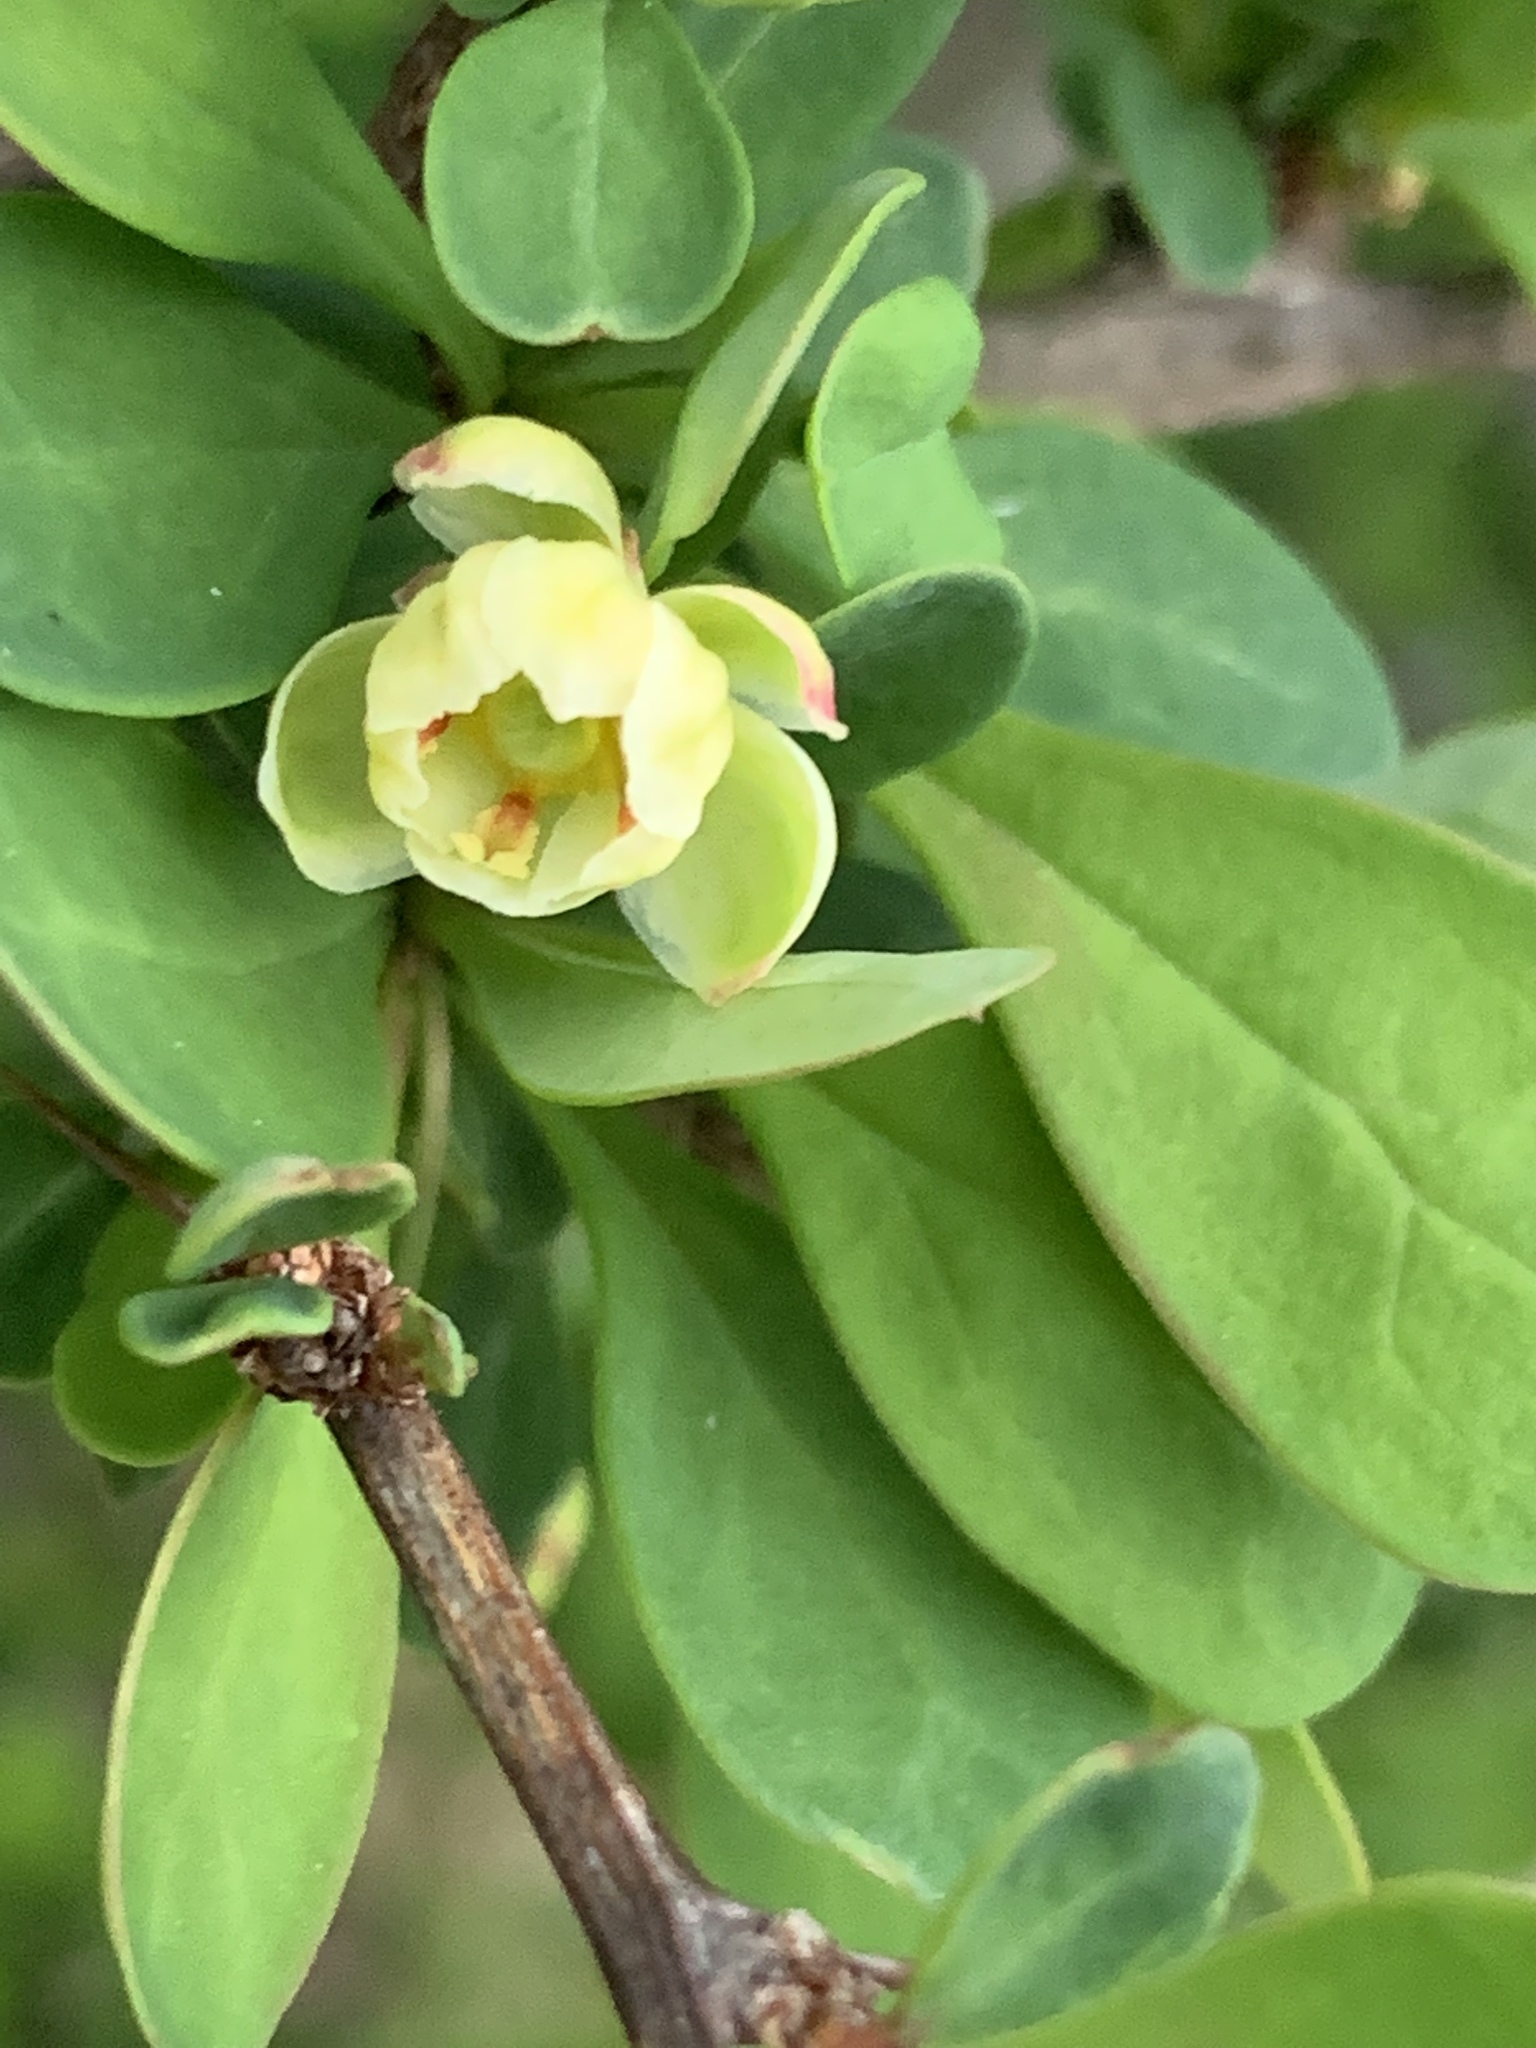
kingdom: Plantae
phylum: Tracheophyta
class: Magnoliopsida
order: Ranunculales
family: Berberidaceae
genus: Berberis
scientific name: Berberis thunbergii
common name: Japanese barberry
